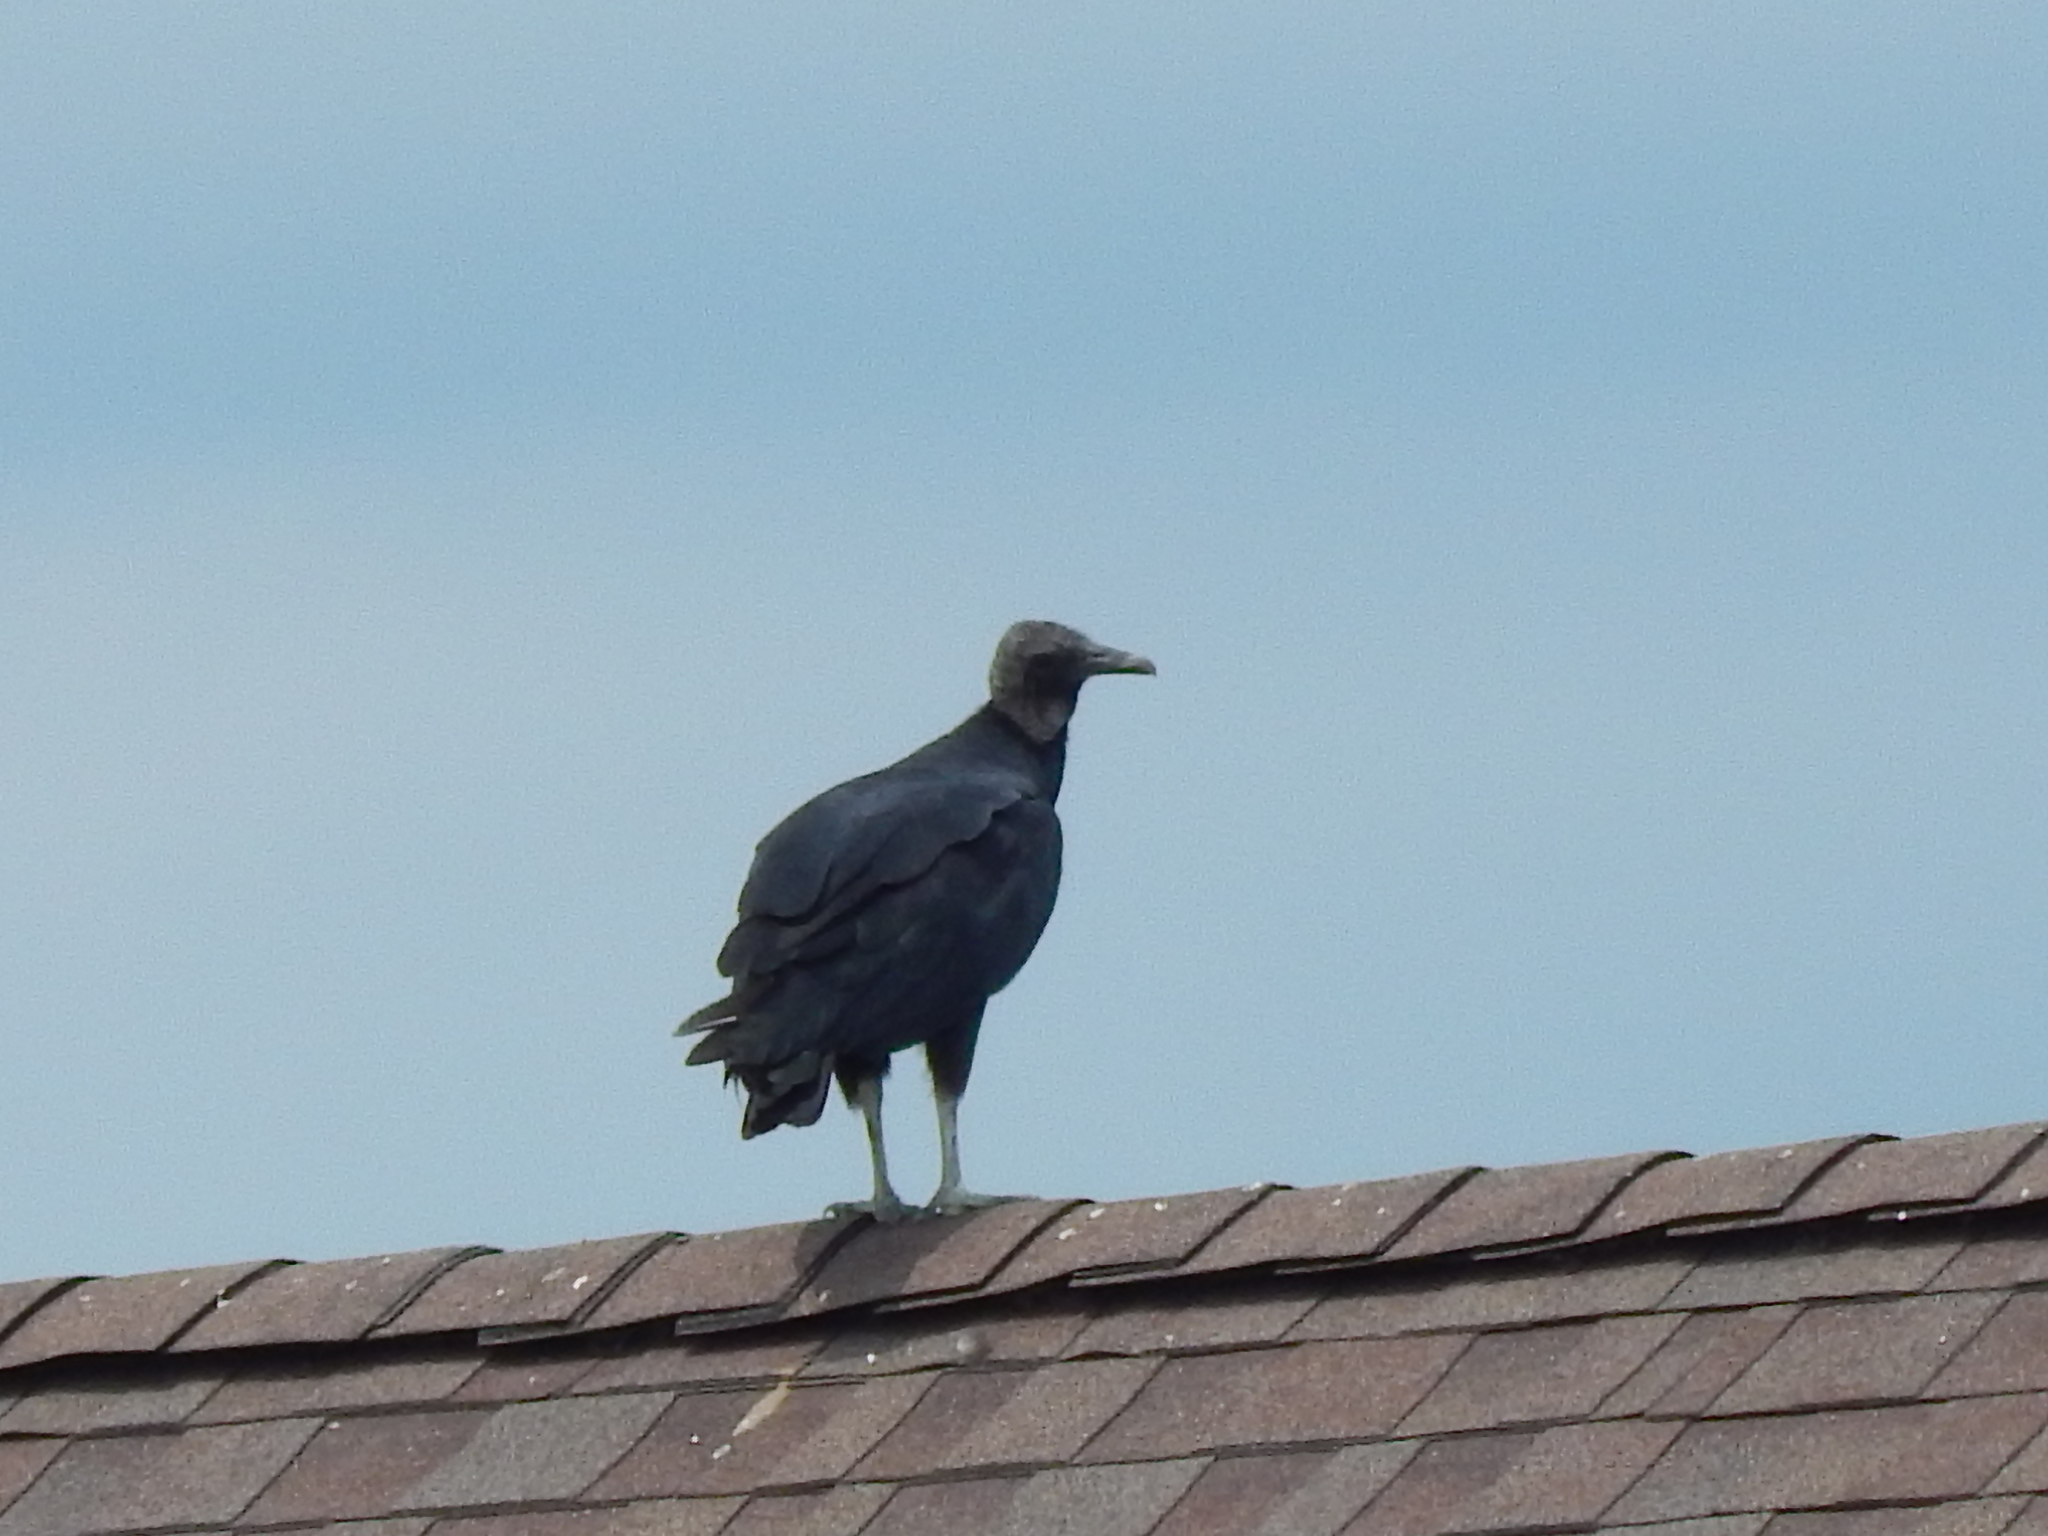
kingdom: Animalia
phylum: Chordata
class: Aves
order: Accipitriformes
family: Cathartidae
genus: Coragyps
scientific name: Coragyps atratus
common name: Black vulture
